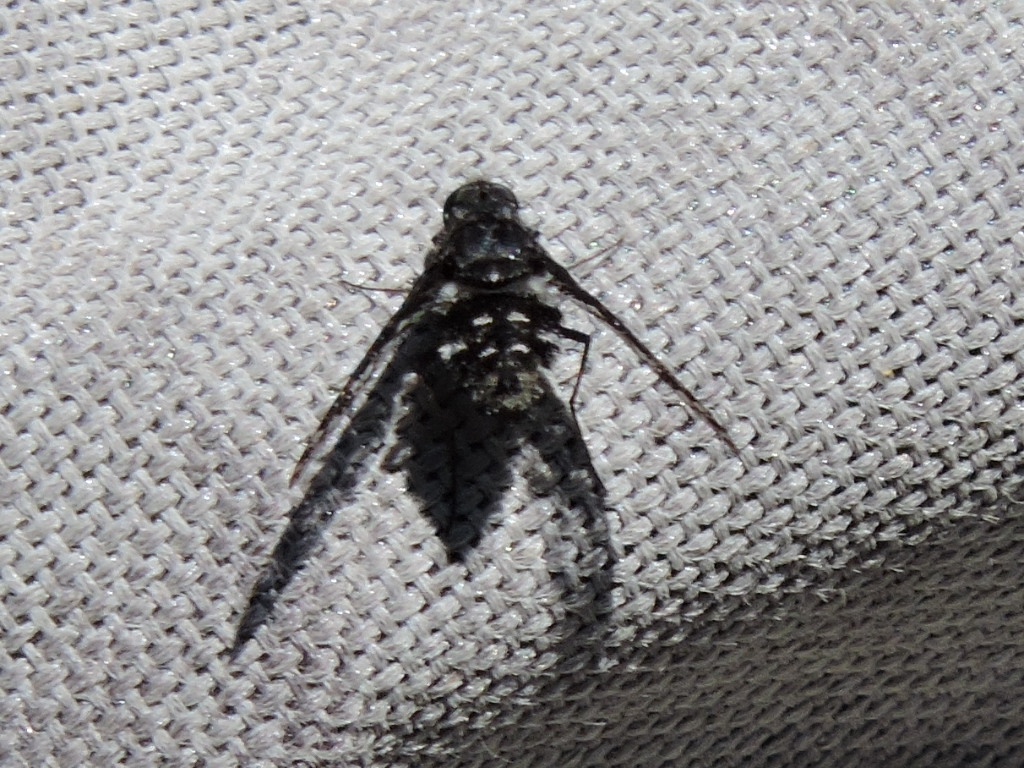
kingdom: Animalia
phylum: Arthropoda
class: Insecta
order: Diptera
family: Bombyliidae
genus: Anthrax
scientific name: Anthrax
